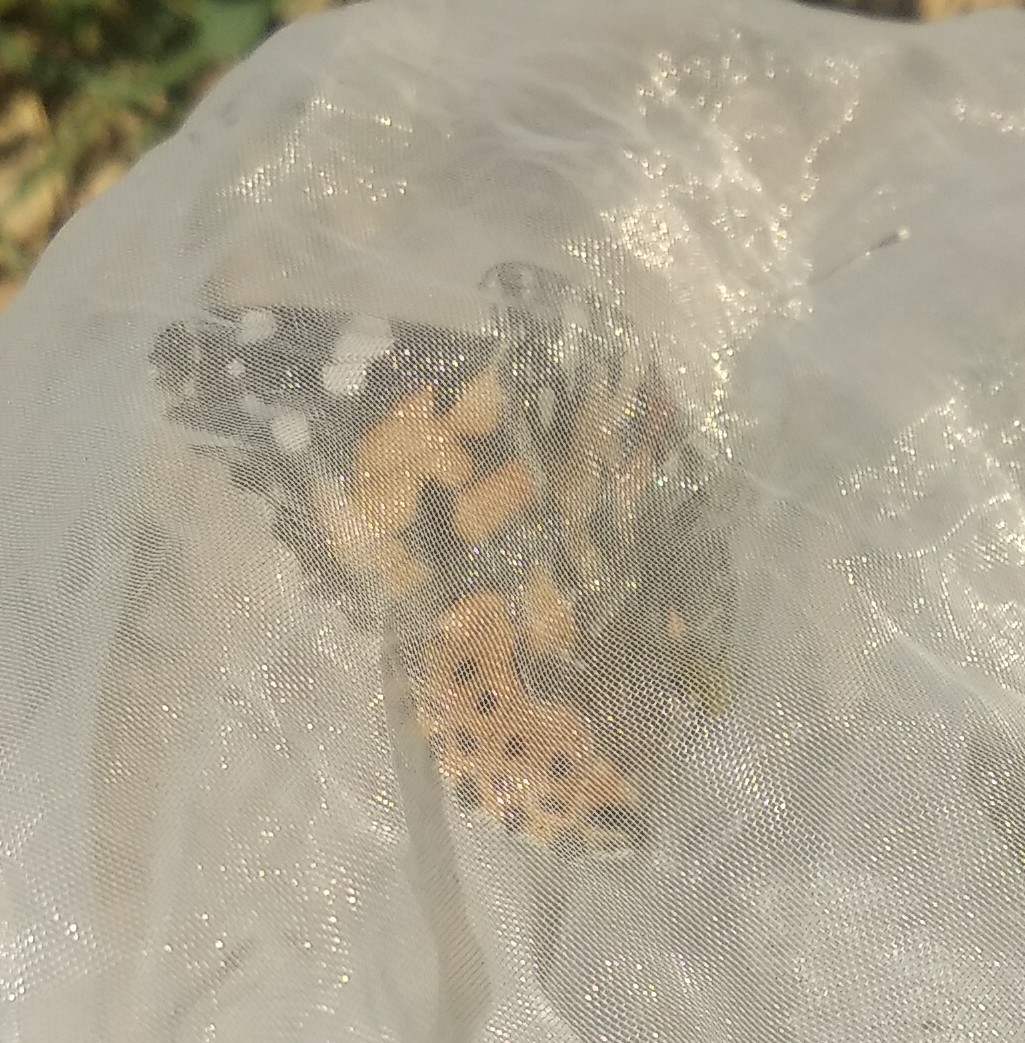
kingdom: Animalia
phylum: Arthropoda
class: Insecta
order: Lepidoptera
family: Nymphalidae
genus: Vanessa
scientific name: Vanessa cardui
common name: Painted lady
